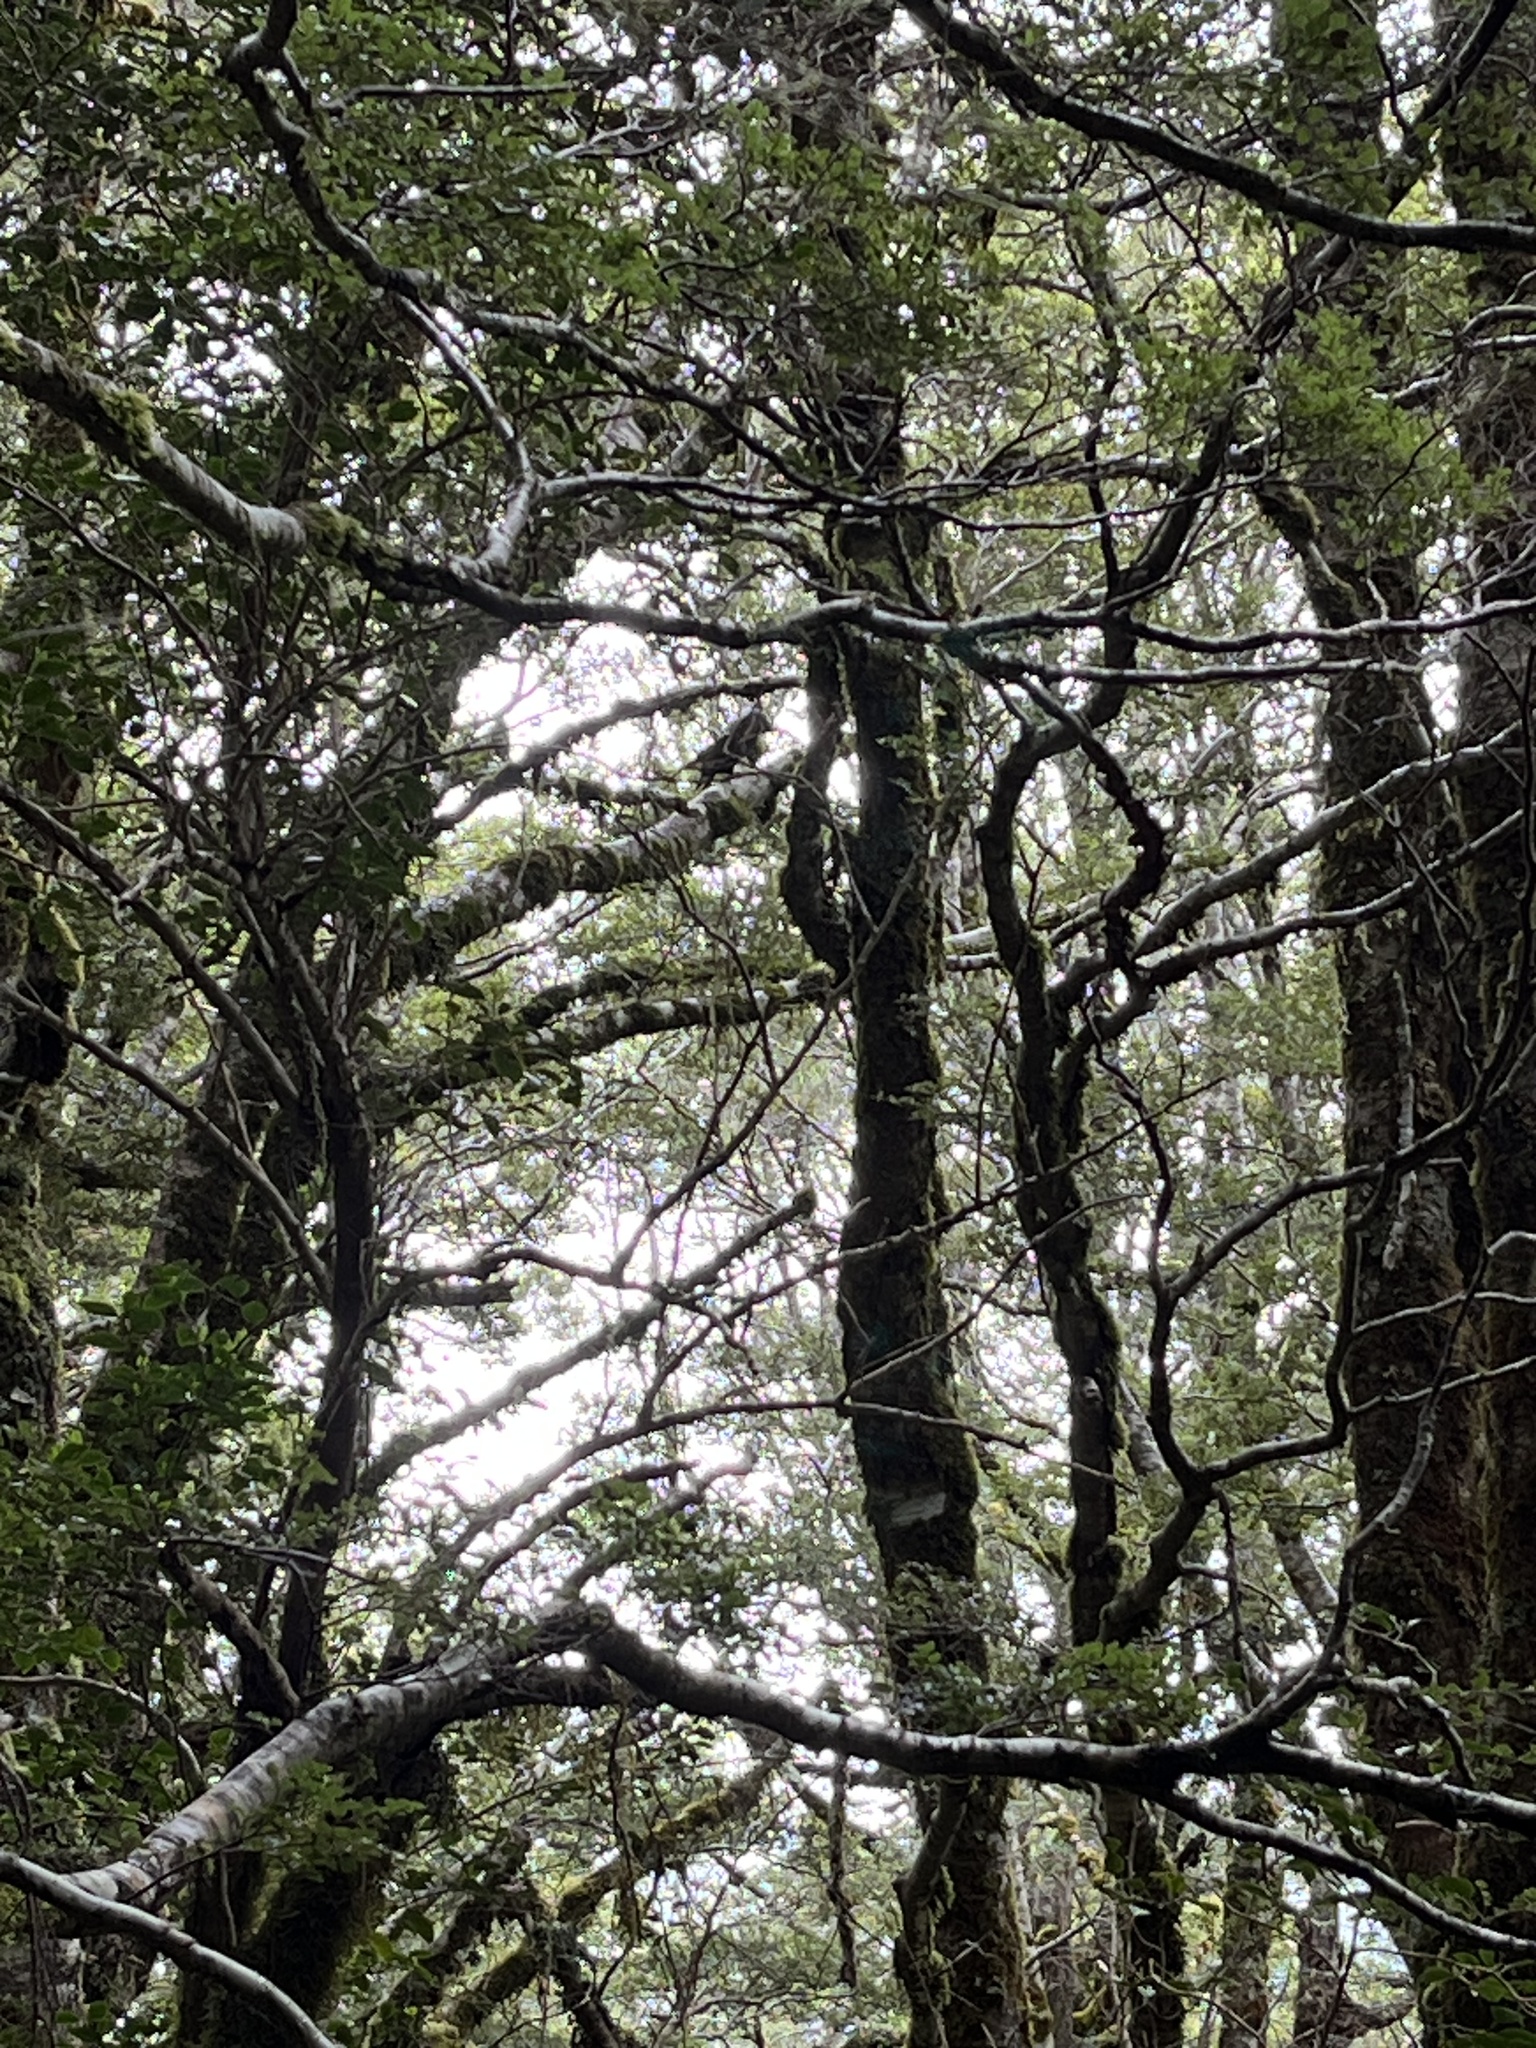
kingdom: Animalia
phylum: Chordata
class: Aves
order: Psittaciformes
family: Psittacidae
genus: Nestor
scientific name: Nestor meridionalis
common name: New zealand kaka
